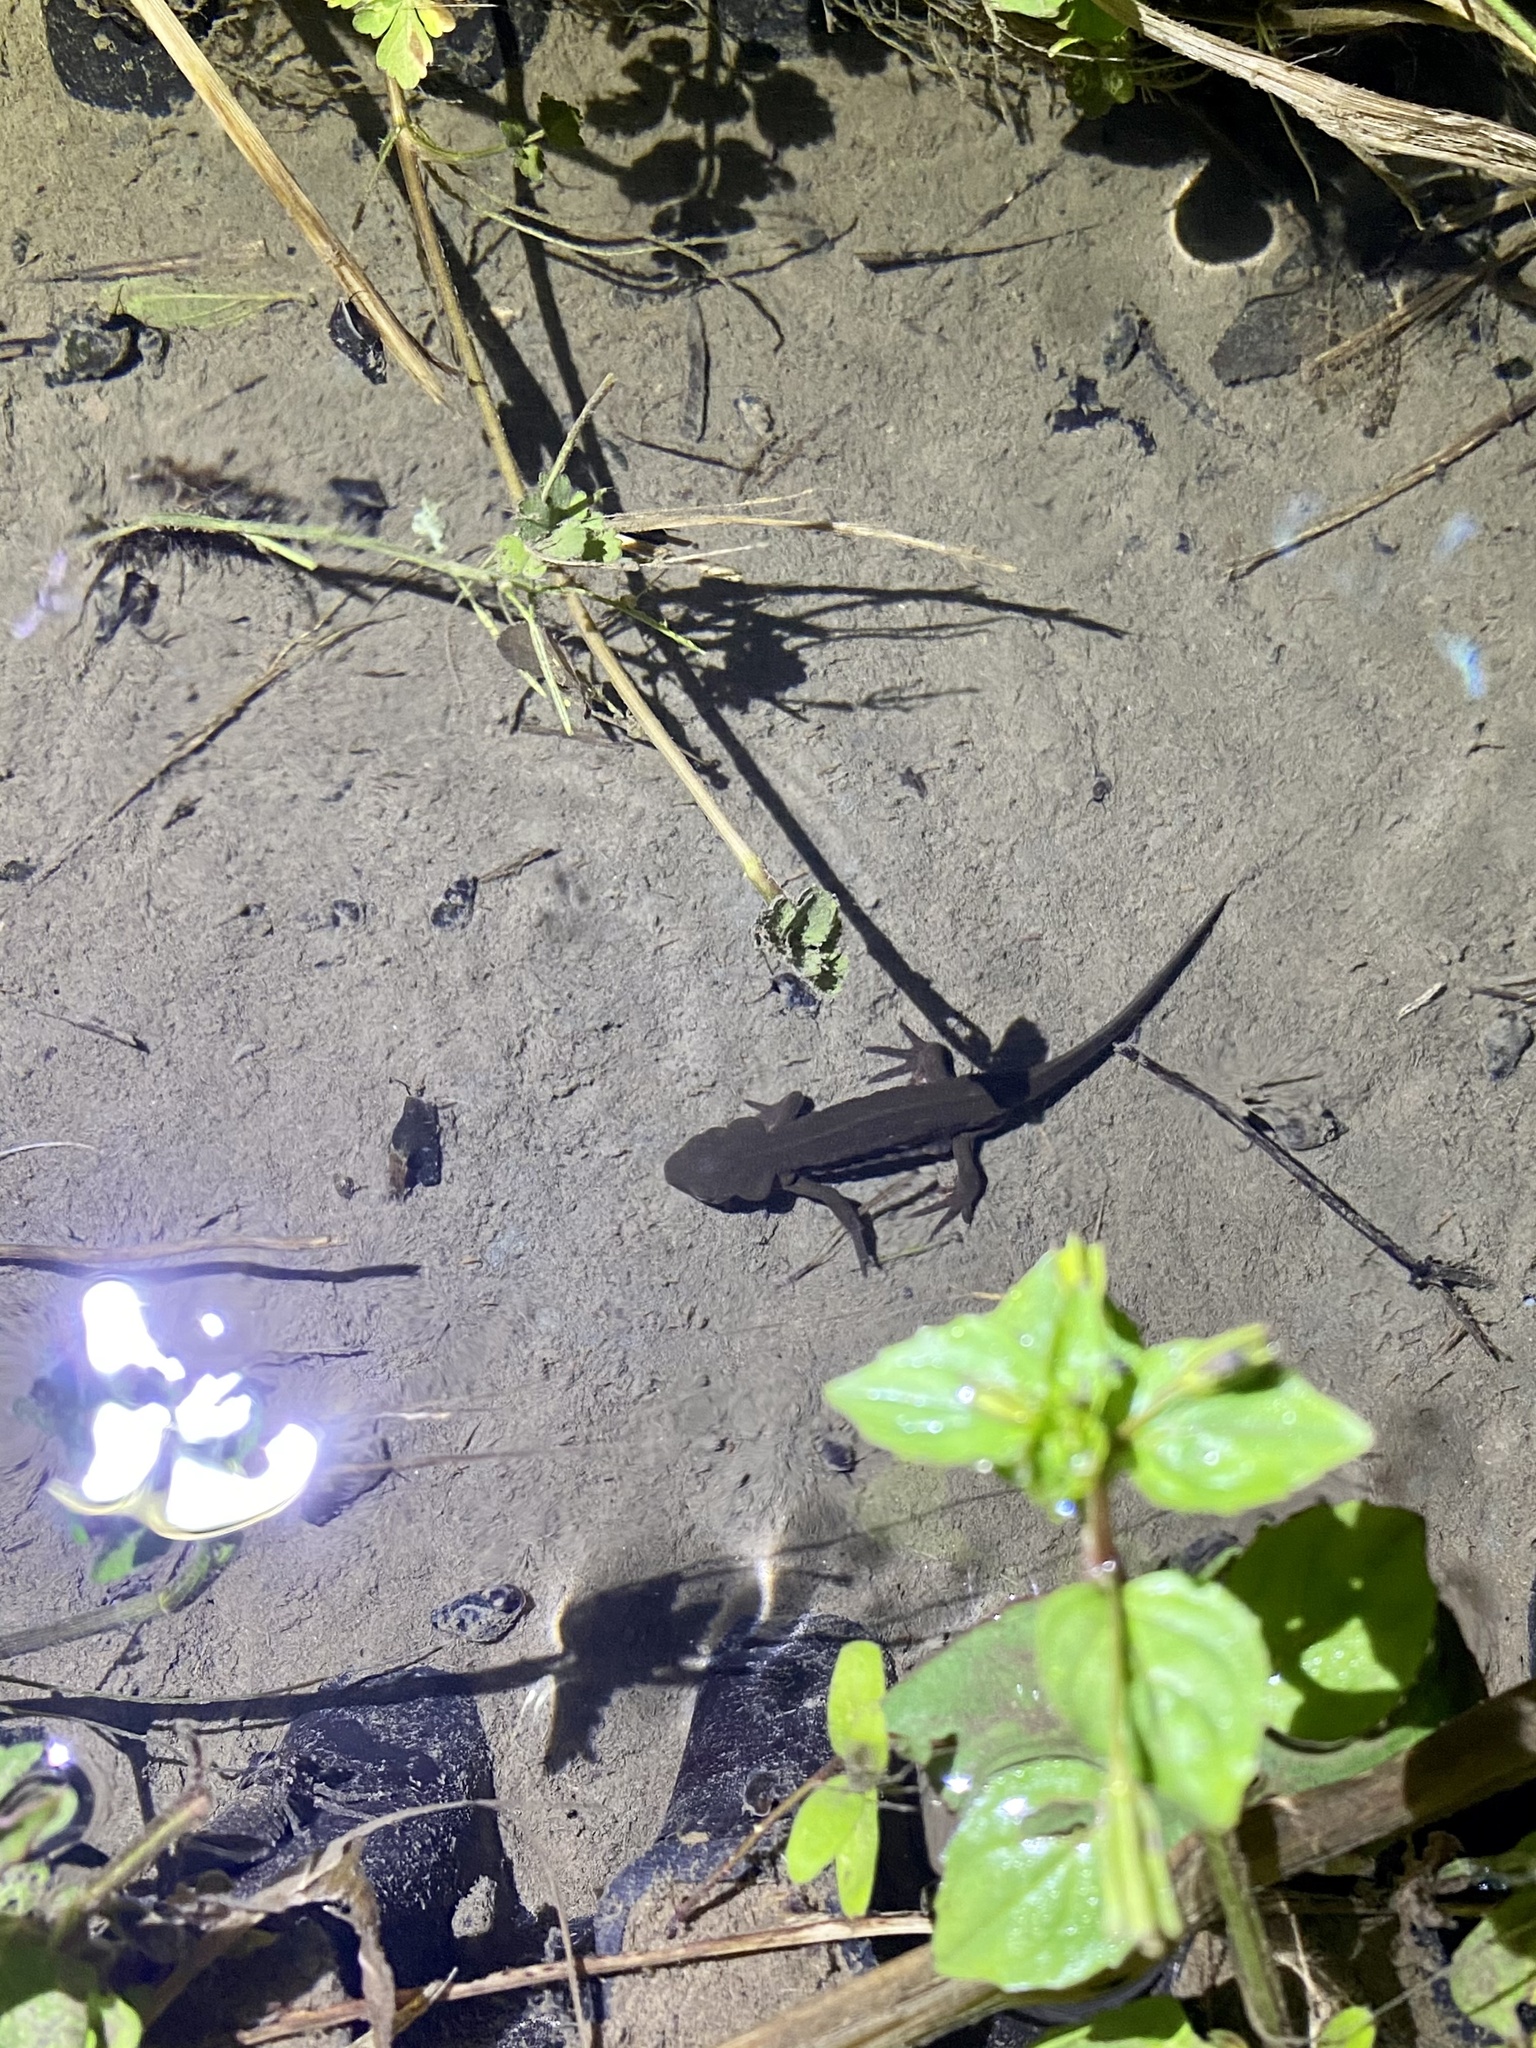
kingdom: Animalia
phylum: Chordata
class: Amphibia
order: Caudata
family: Salamandridae
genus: Cynops
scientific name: Cynops pyrrhogaster
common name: Japanese fire-bellied newt
